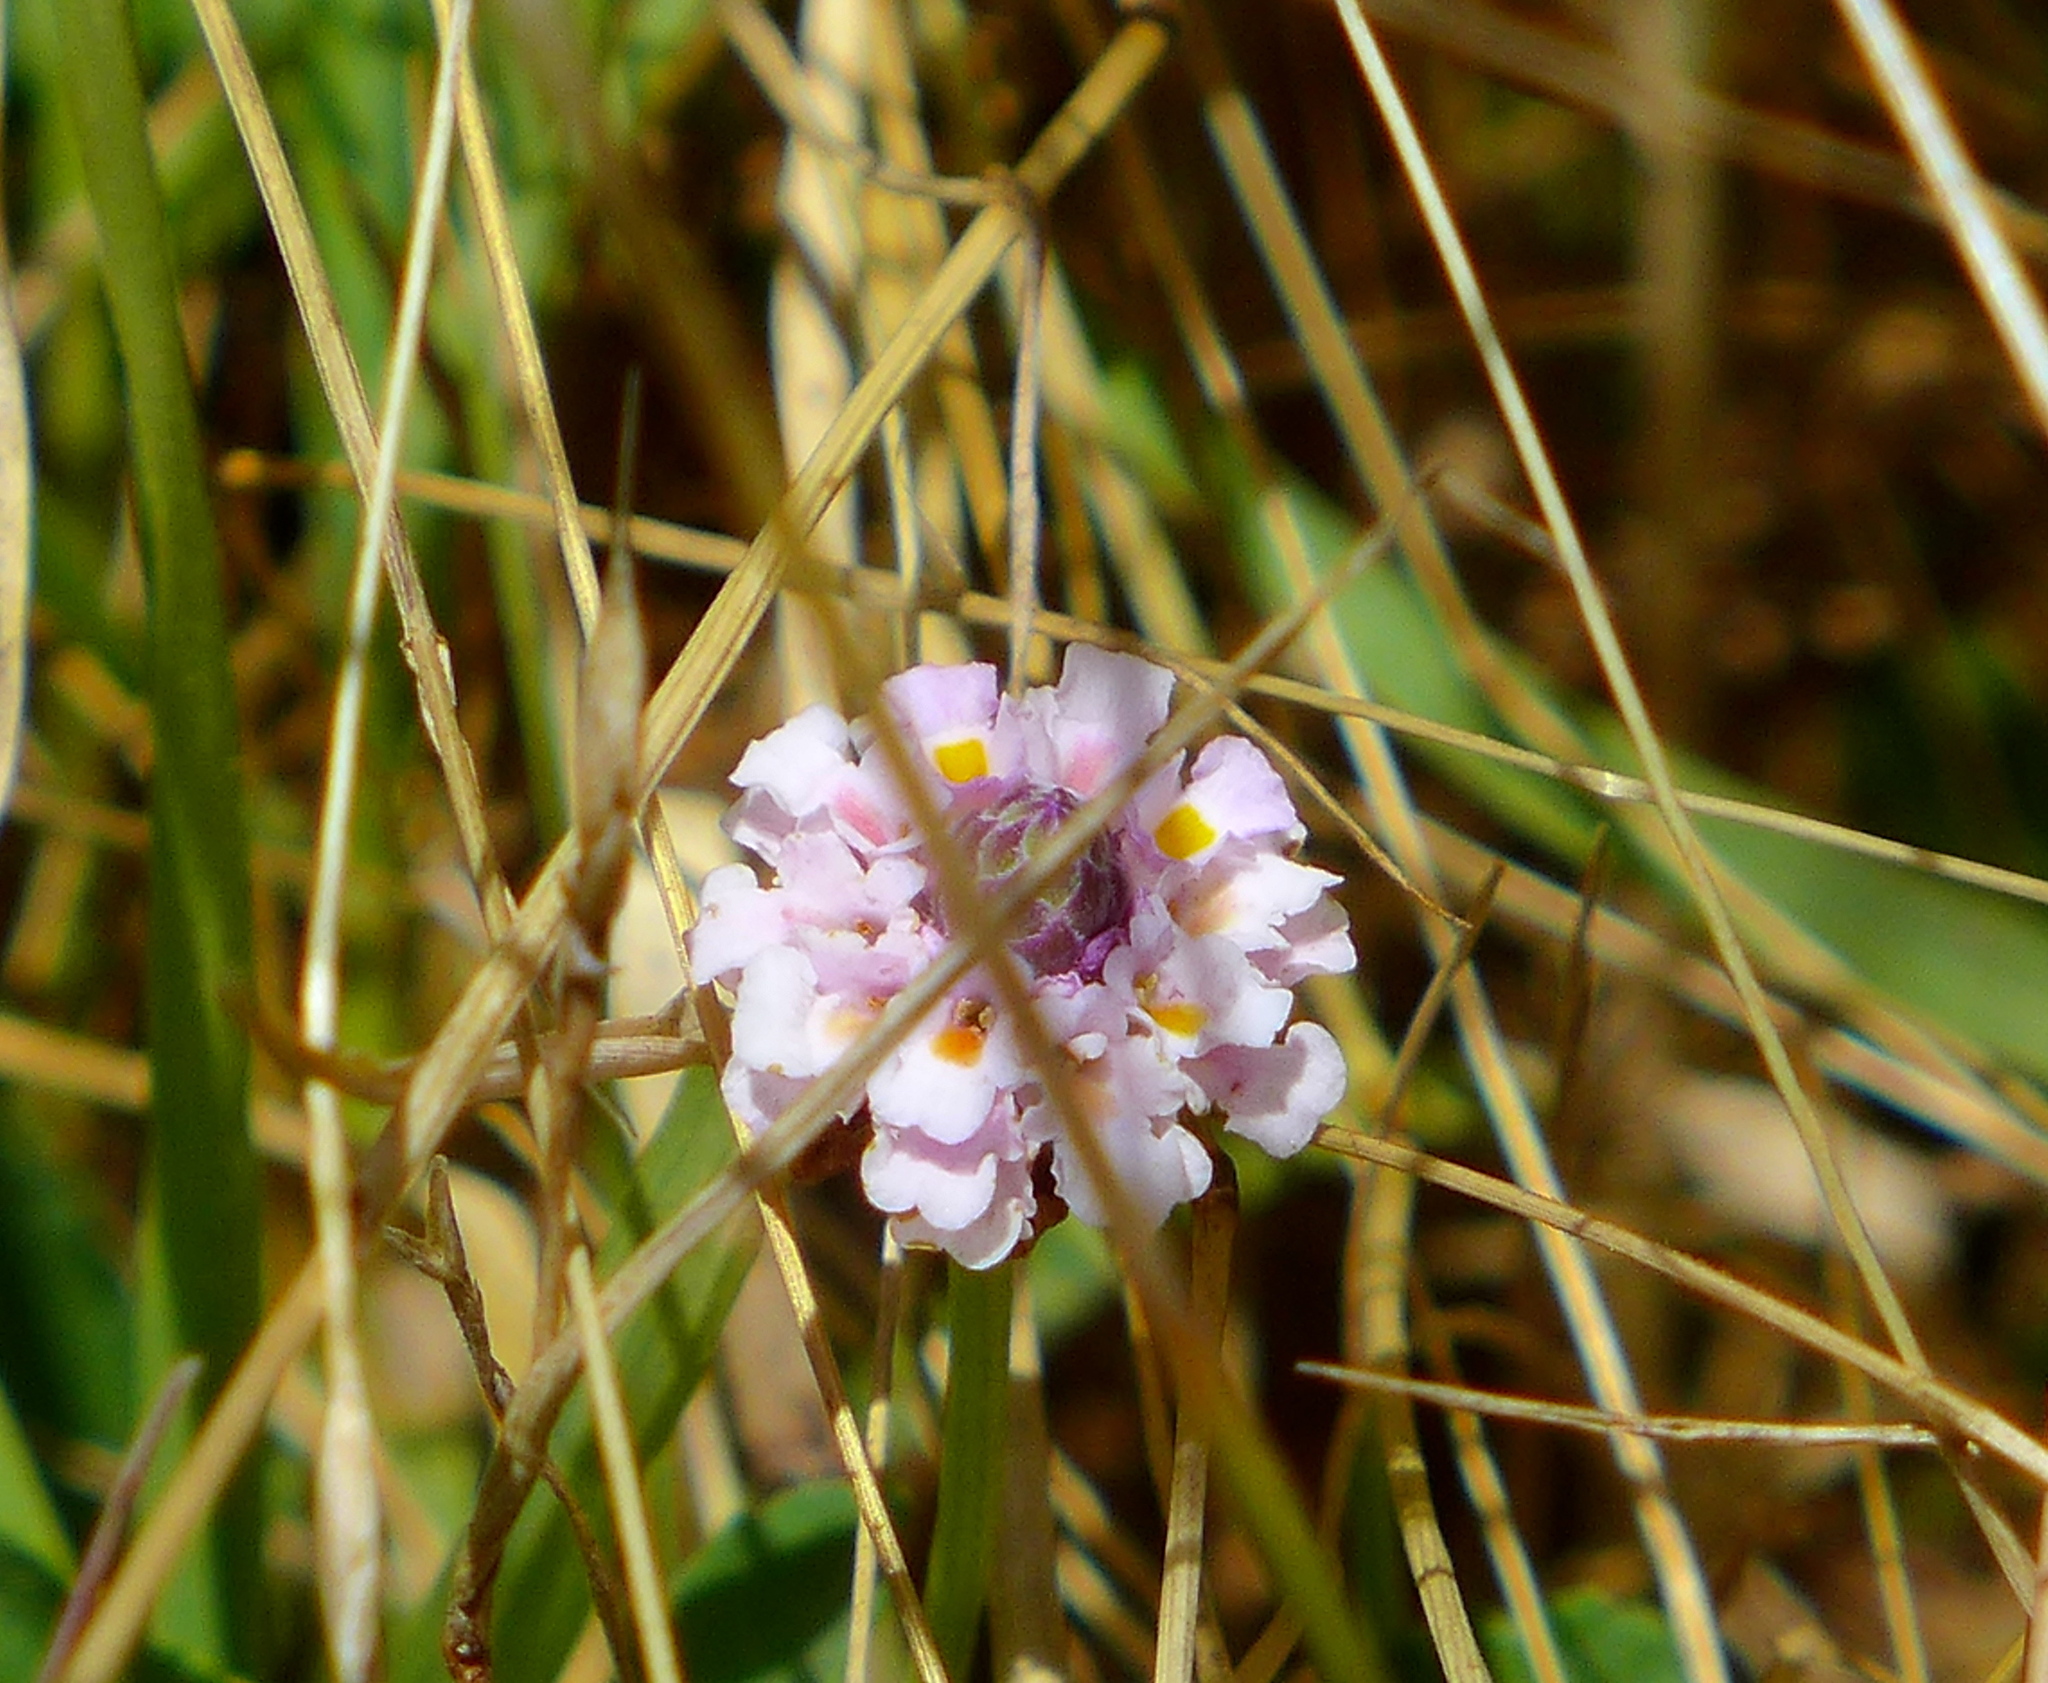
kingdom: Plantae
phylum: Tracheophyta
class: Magnoliopsida
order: Lamiales
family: Verbenaceae
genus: Phyla
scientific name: Phyla nodiflora
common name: Frogfruit
